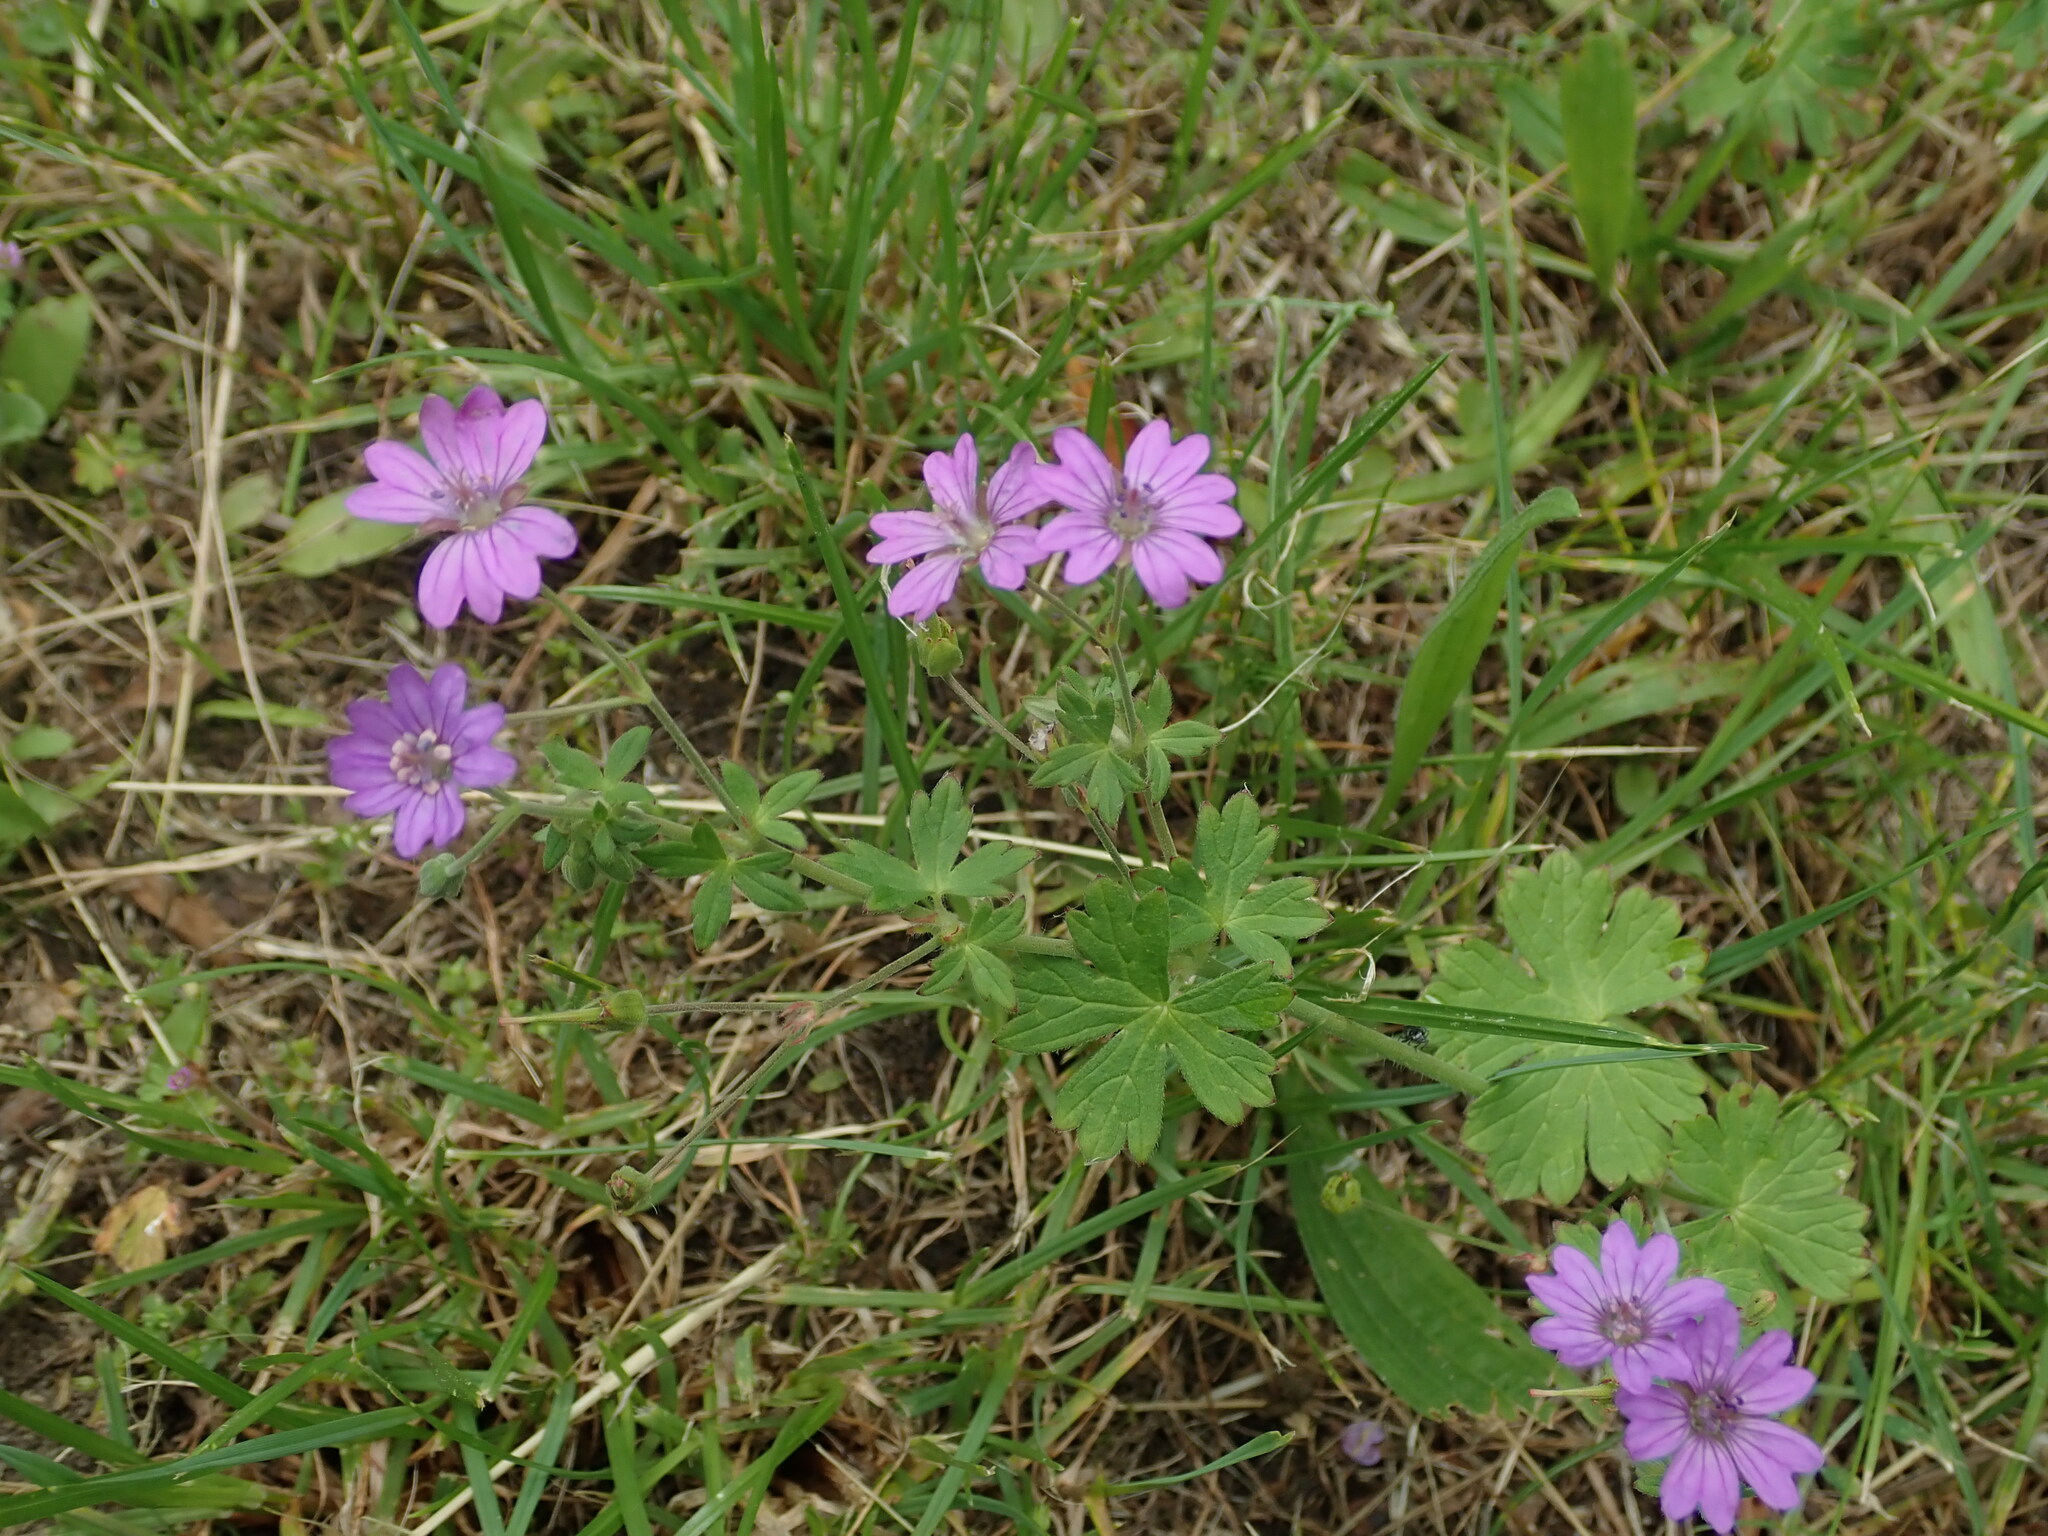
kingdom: Plantae
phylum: Tracheophyta
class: Magnoliopsida
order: Geraniales
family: Geraniaceae
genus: Geranium
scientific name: Geranium pyrenaicum
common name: Hedgerow crane's-bill
